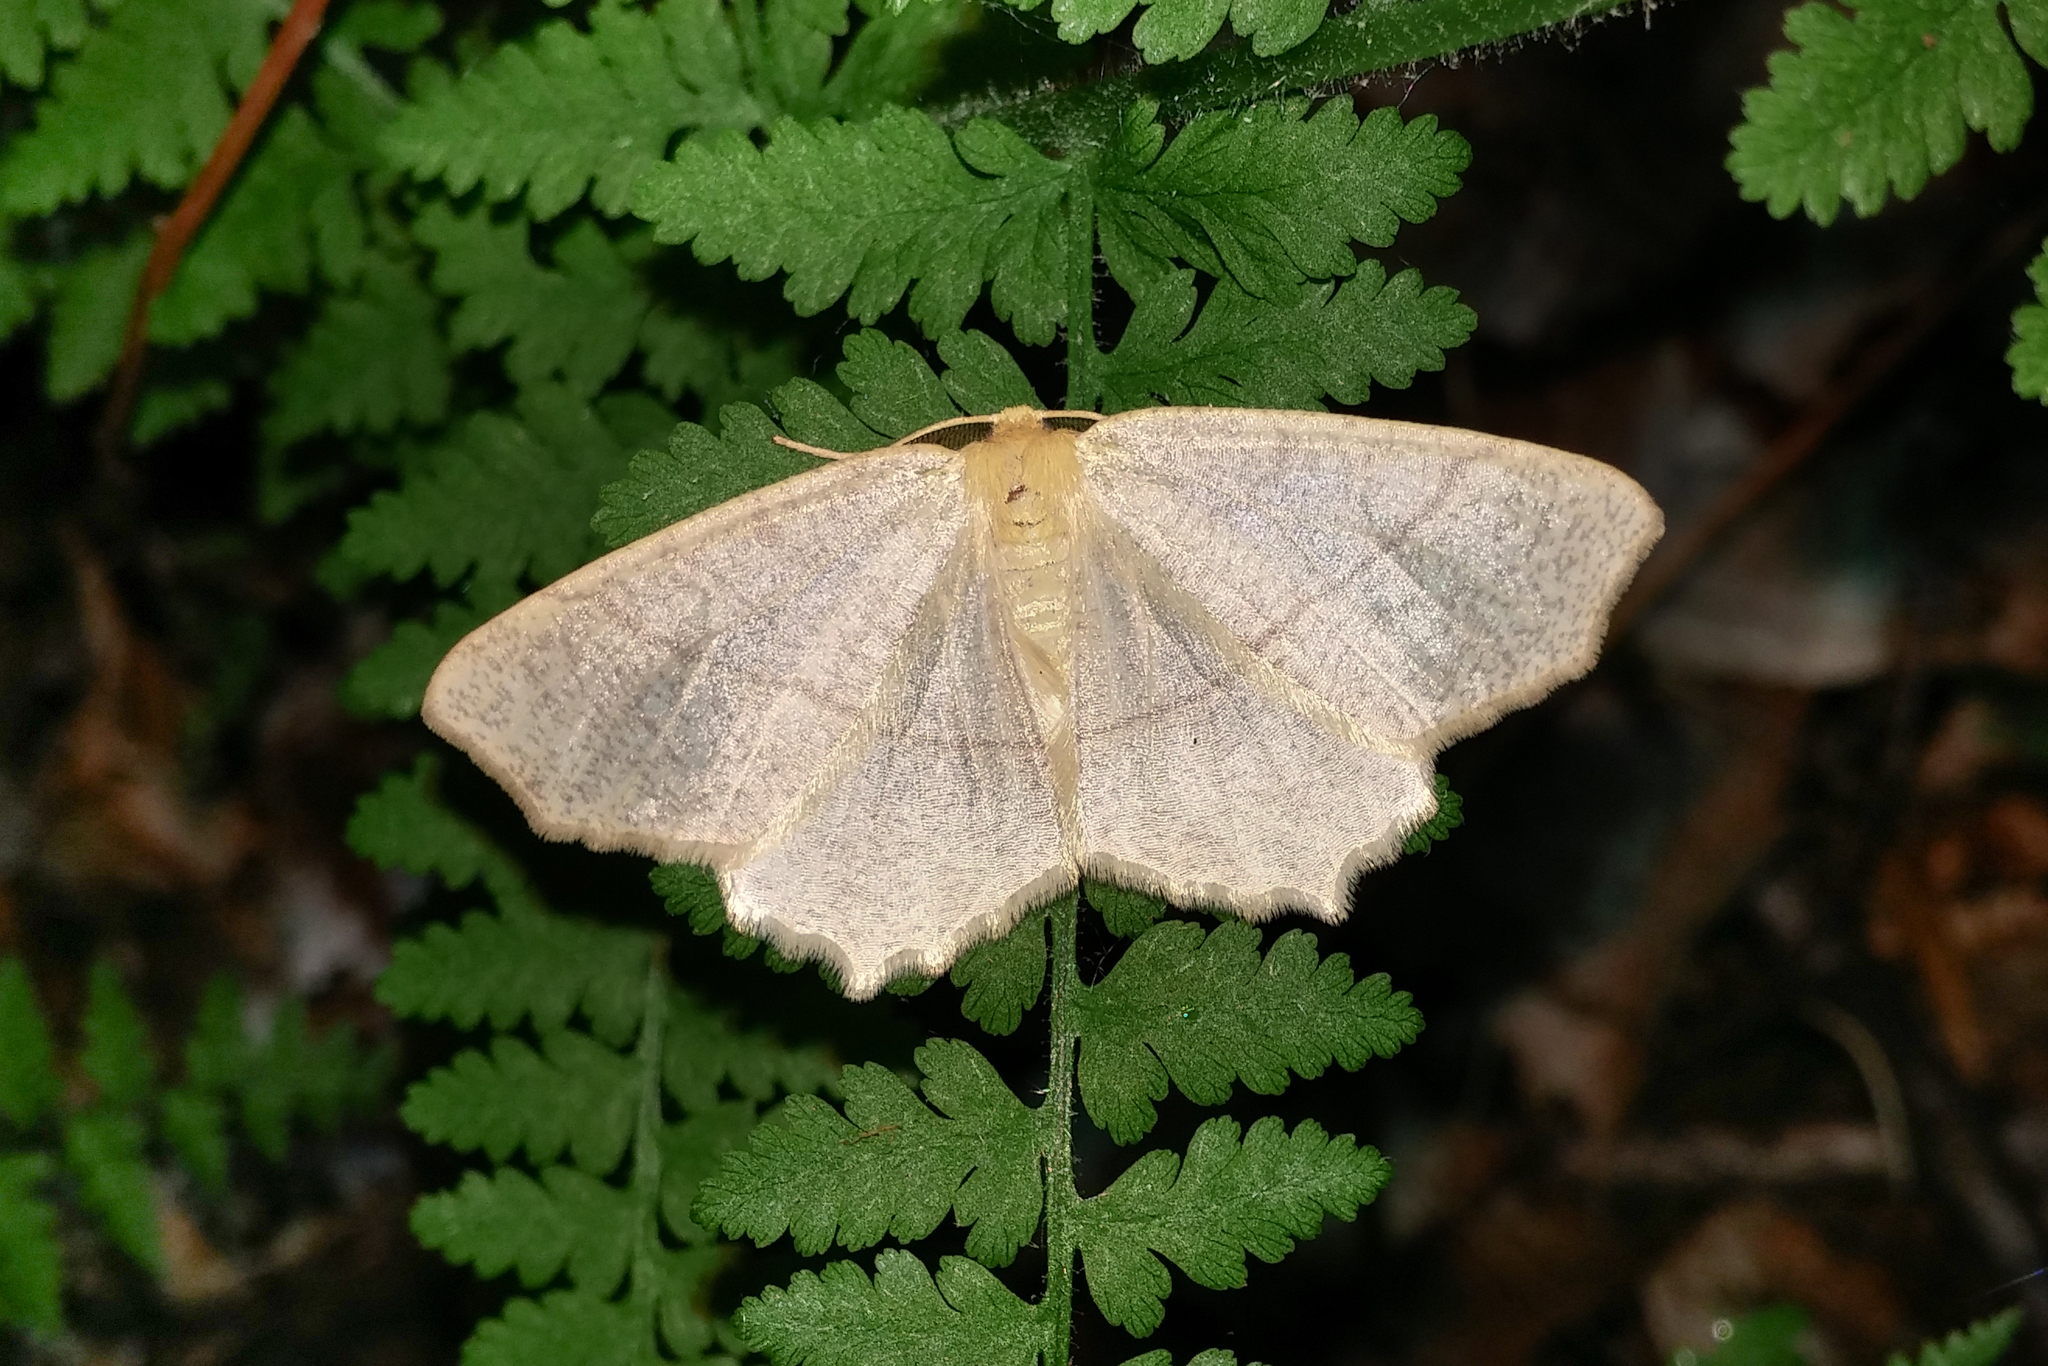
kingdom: Animalia
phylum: Arthropoda
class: Insecta
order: Lepidoptera
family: Geometridae
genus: Besma
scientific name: Besma endropiaria
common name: Straw besma
